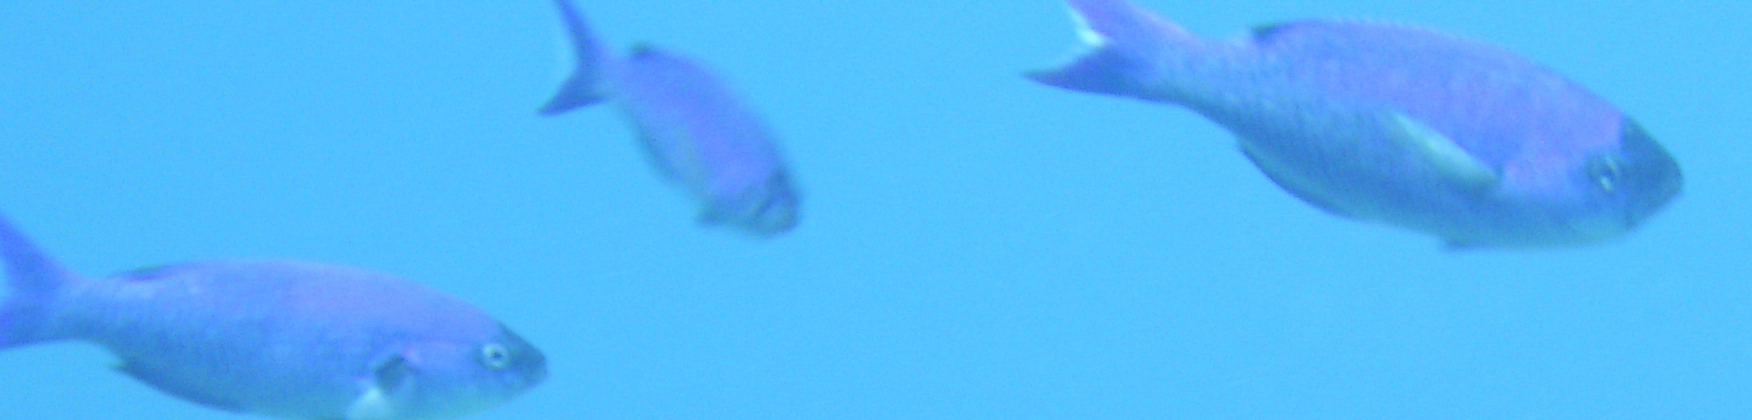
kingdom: Animalia
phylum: Chordata
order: Perciformes
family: Labridae
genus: Bodianus
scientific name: Bodianus
